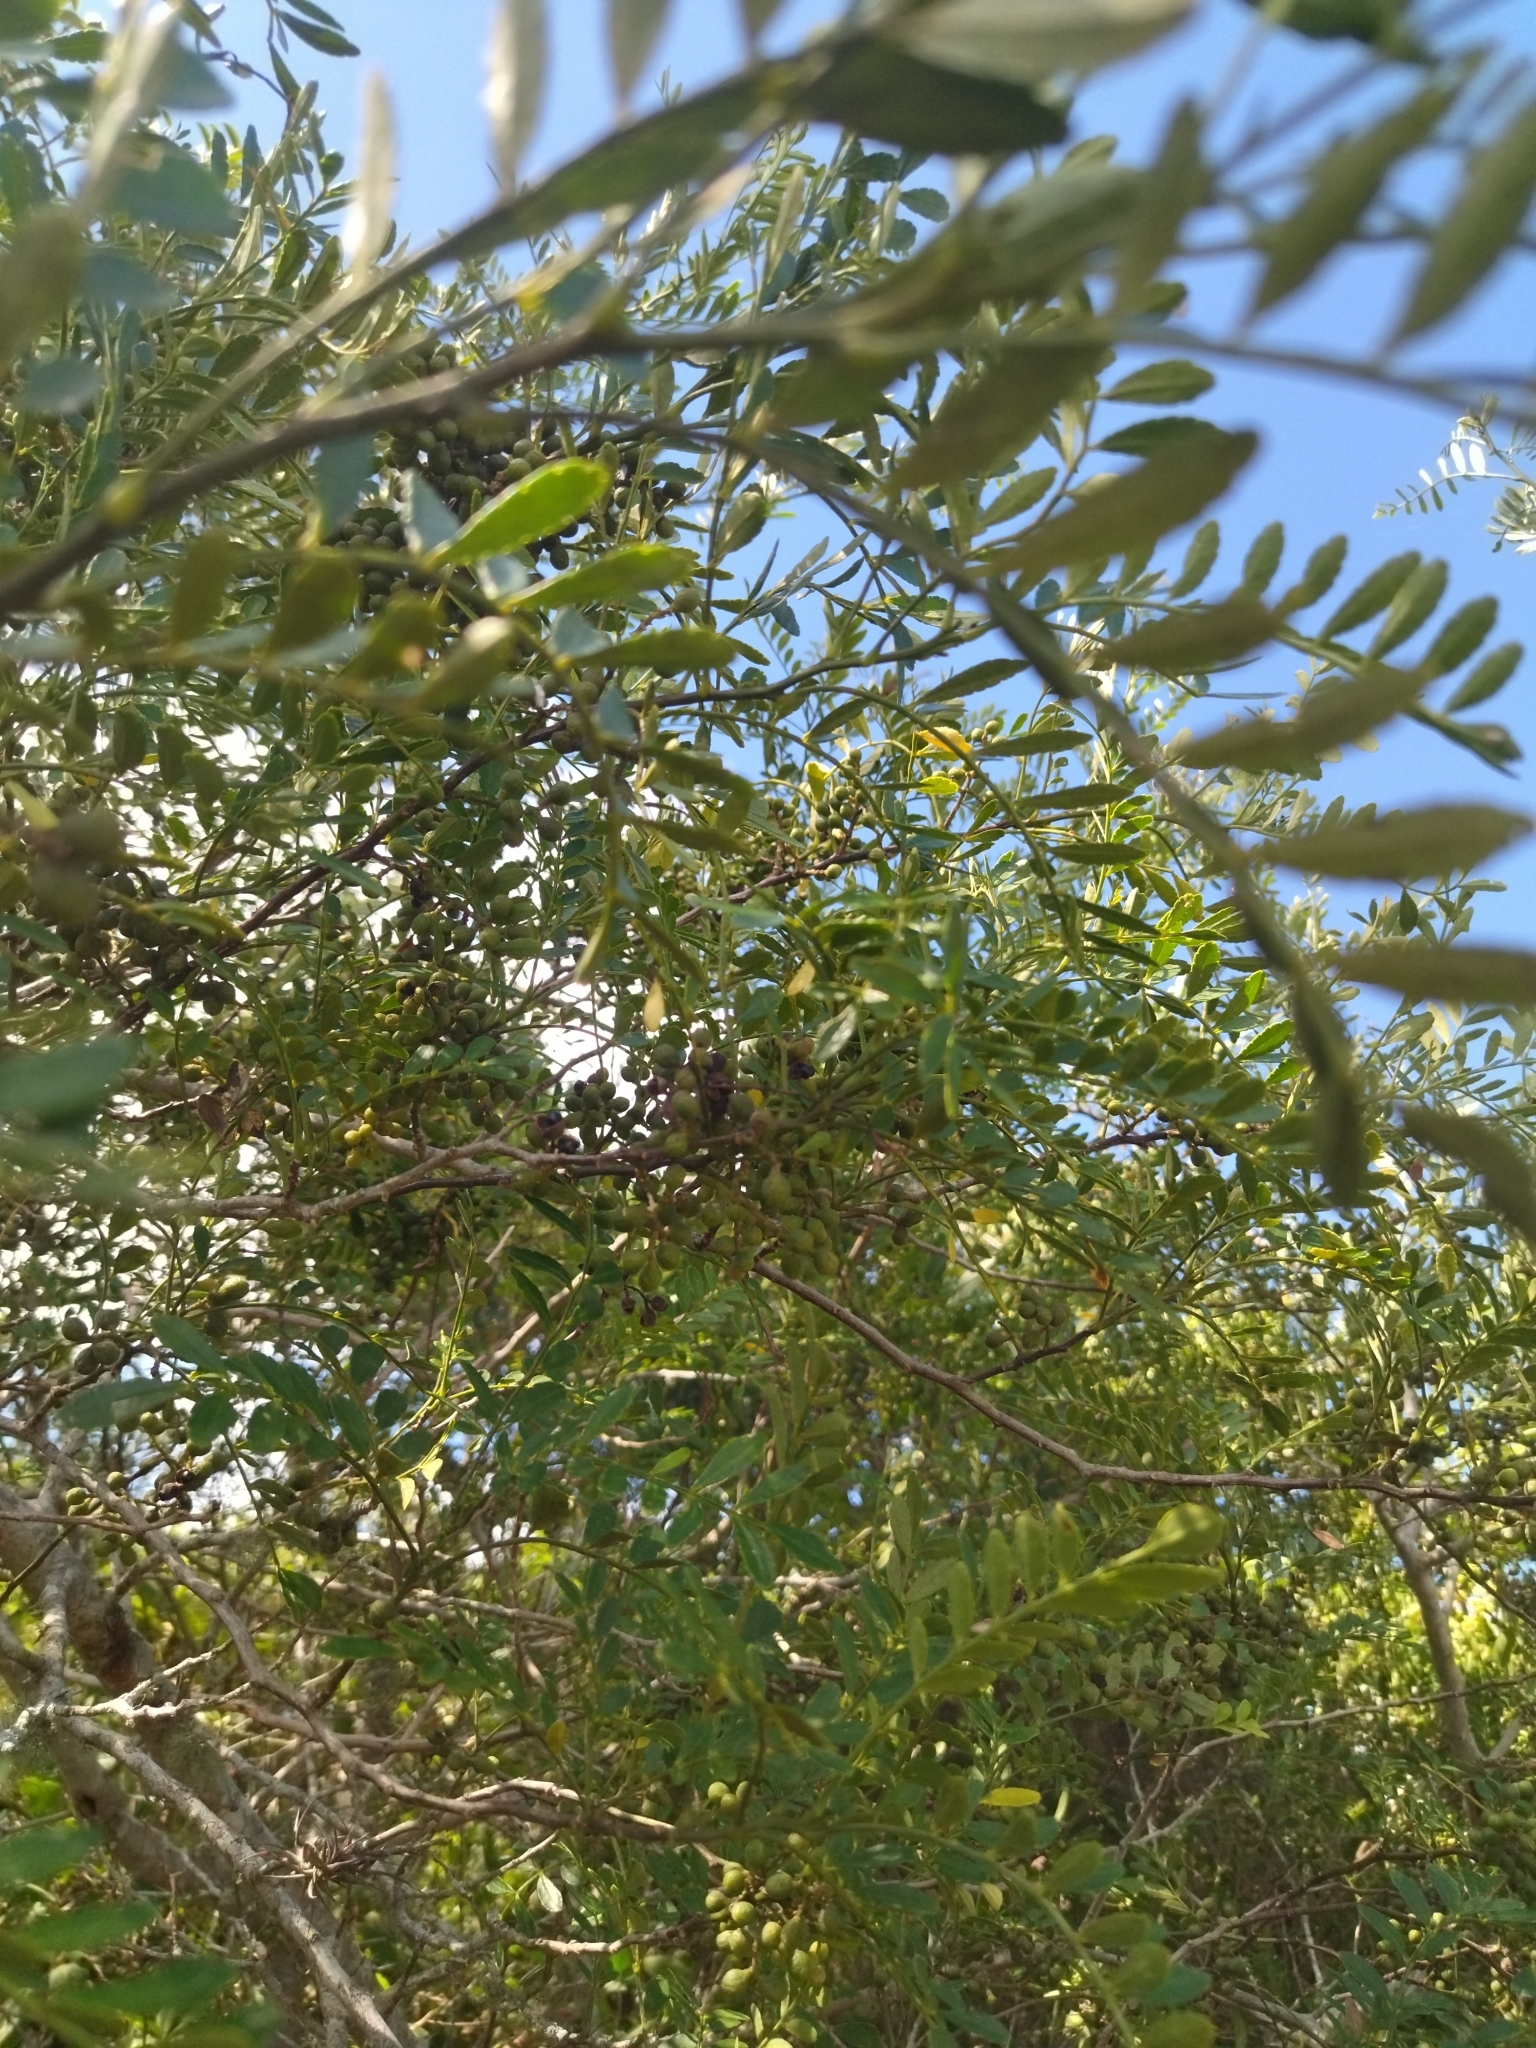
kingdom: Plantae
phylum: Tracheophyta
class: Magnoliopsida
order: Sapindales
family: Rutaceae
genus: Zanthoxylum
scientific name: Zanthoxylum fagara
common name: Lime prickly-ash
